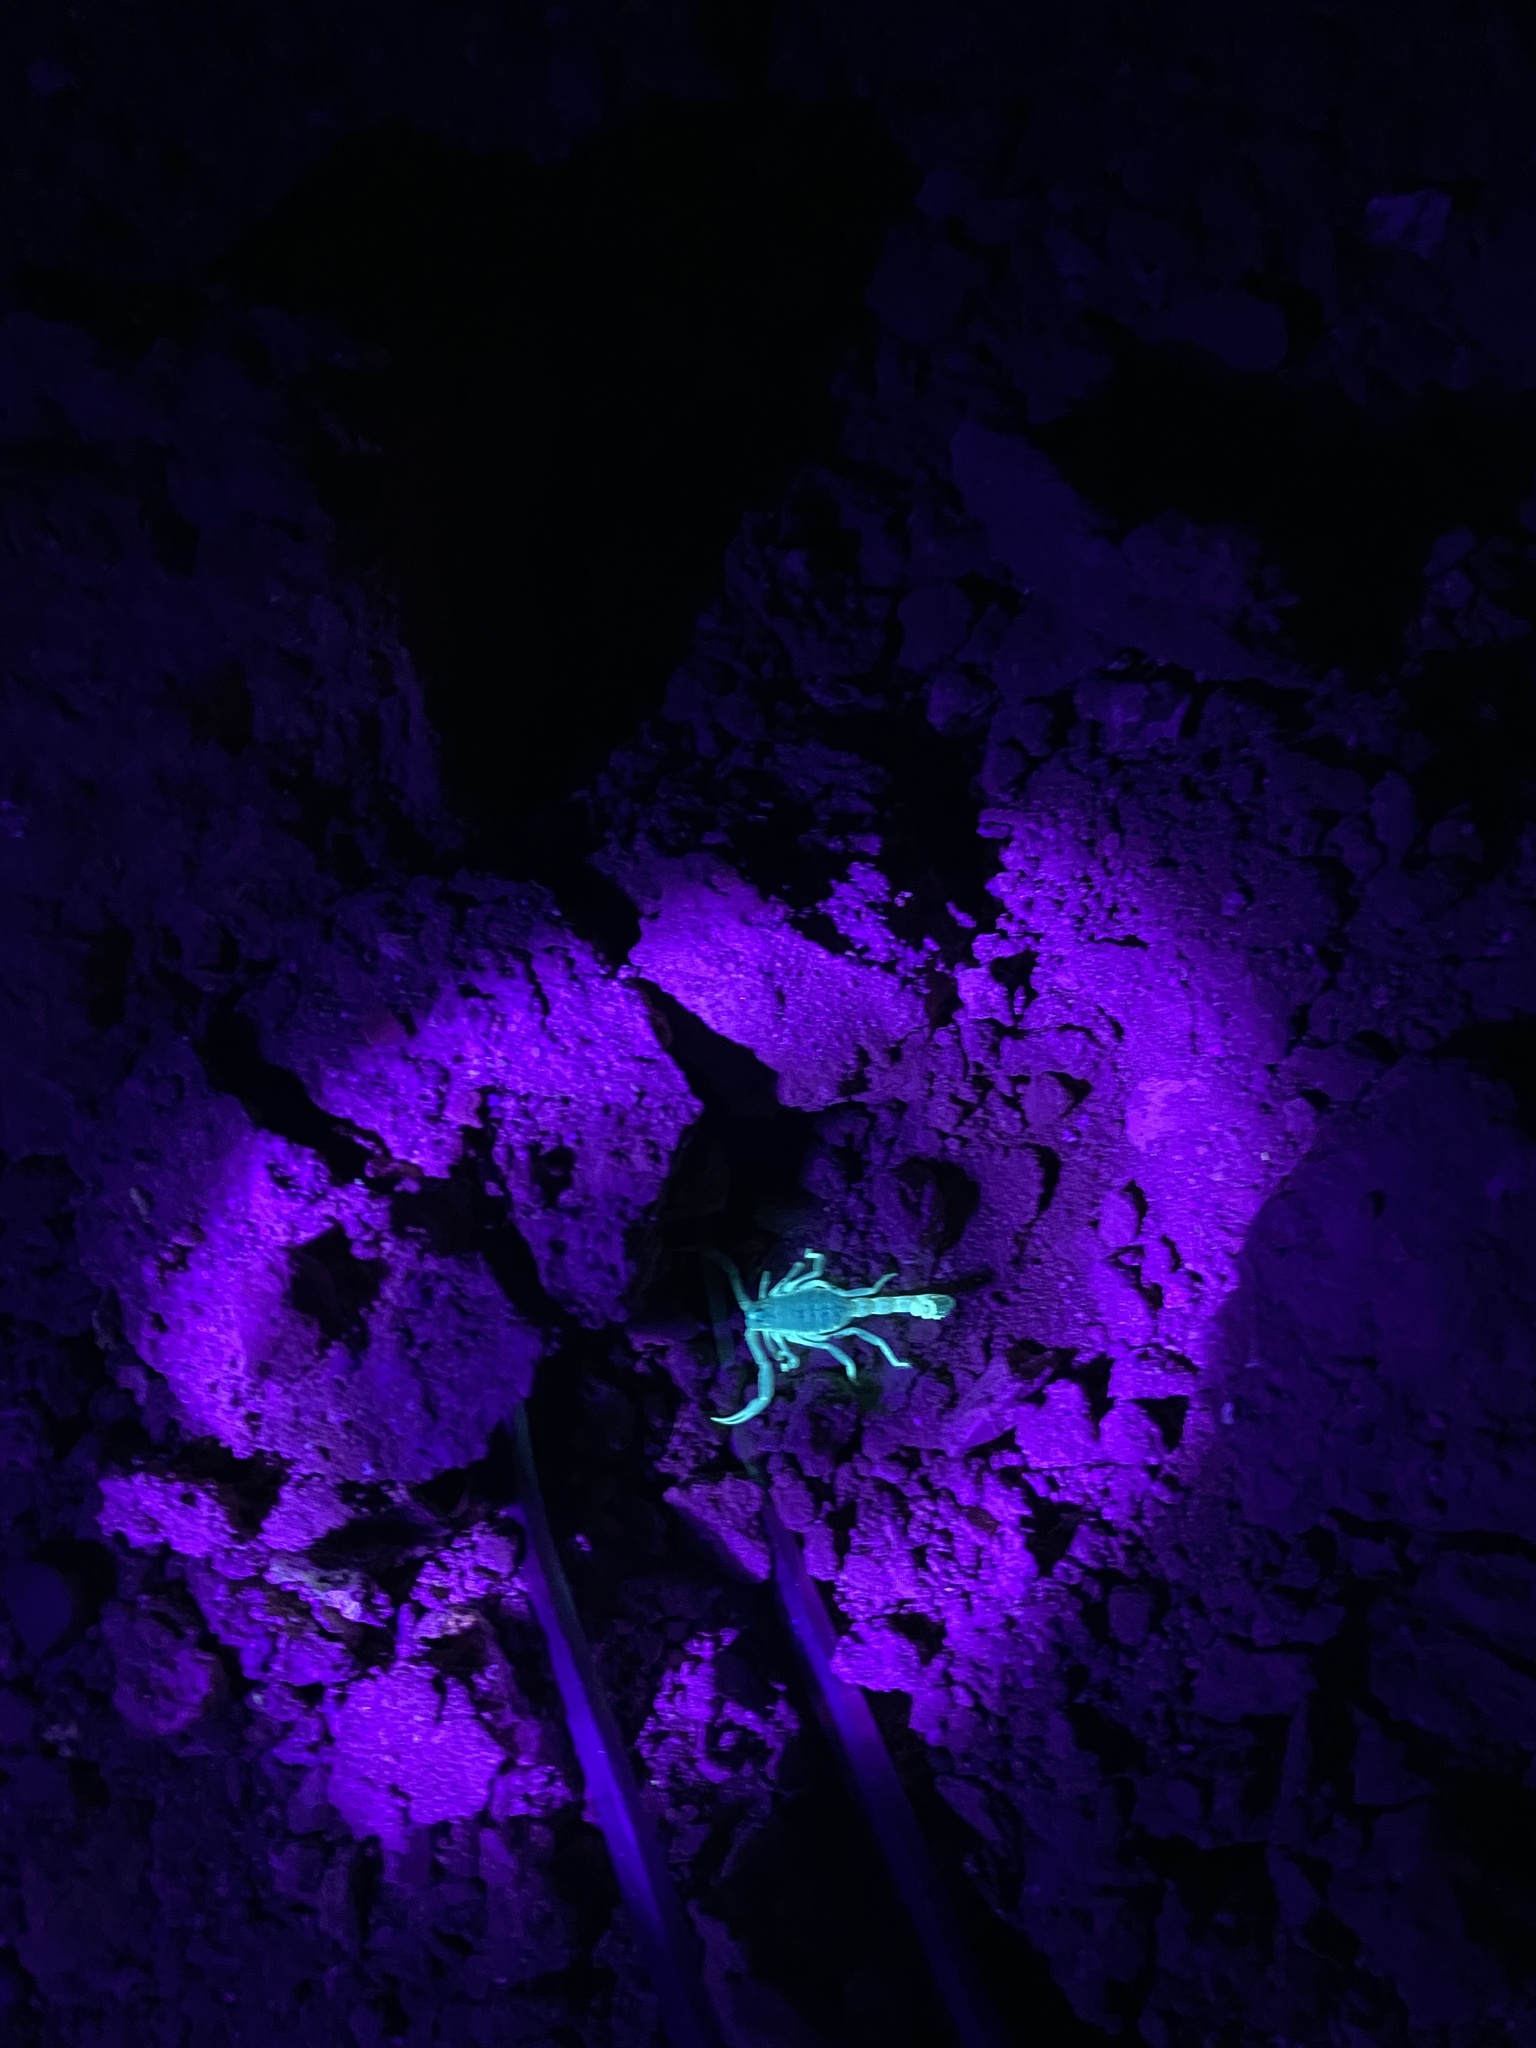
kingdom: Animalia
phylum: Arthropoda
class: Arachnida
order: Scorpiones
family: Buthidae
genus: Odontobuthus
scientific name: Odontobuthus doriae
